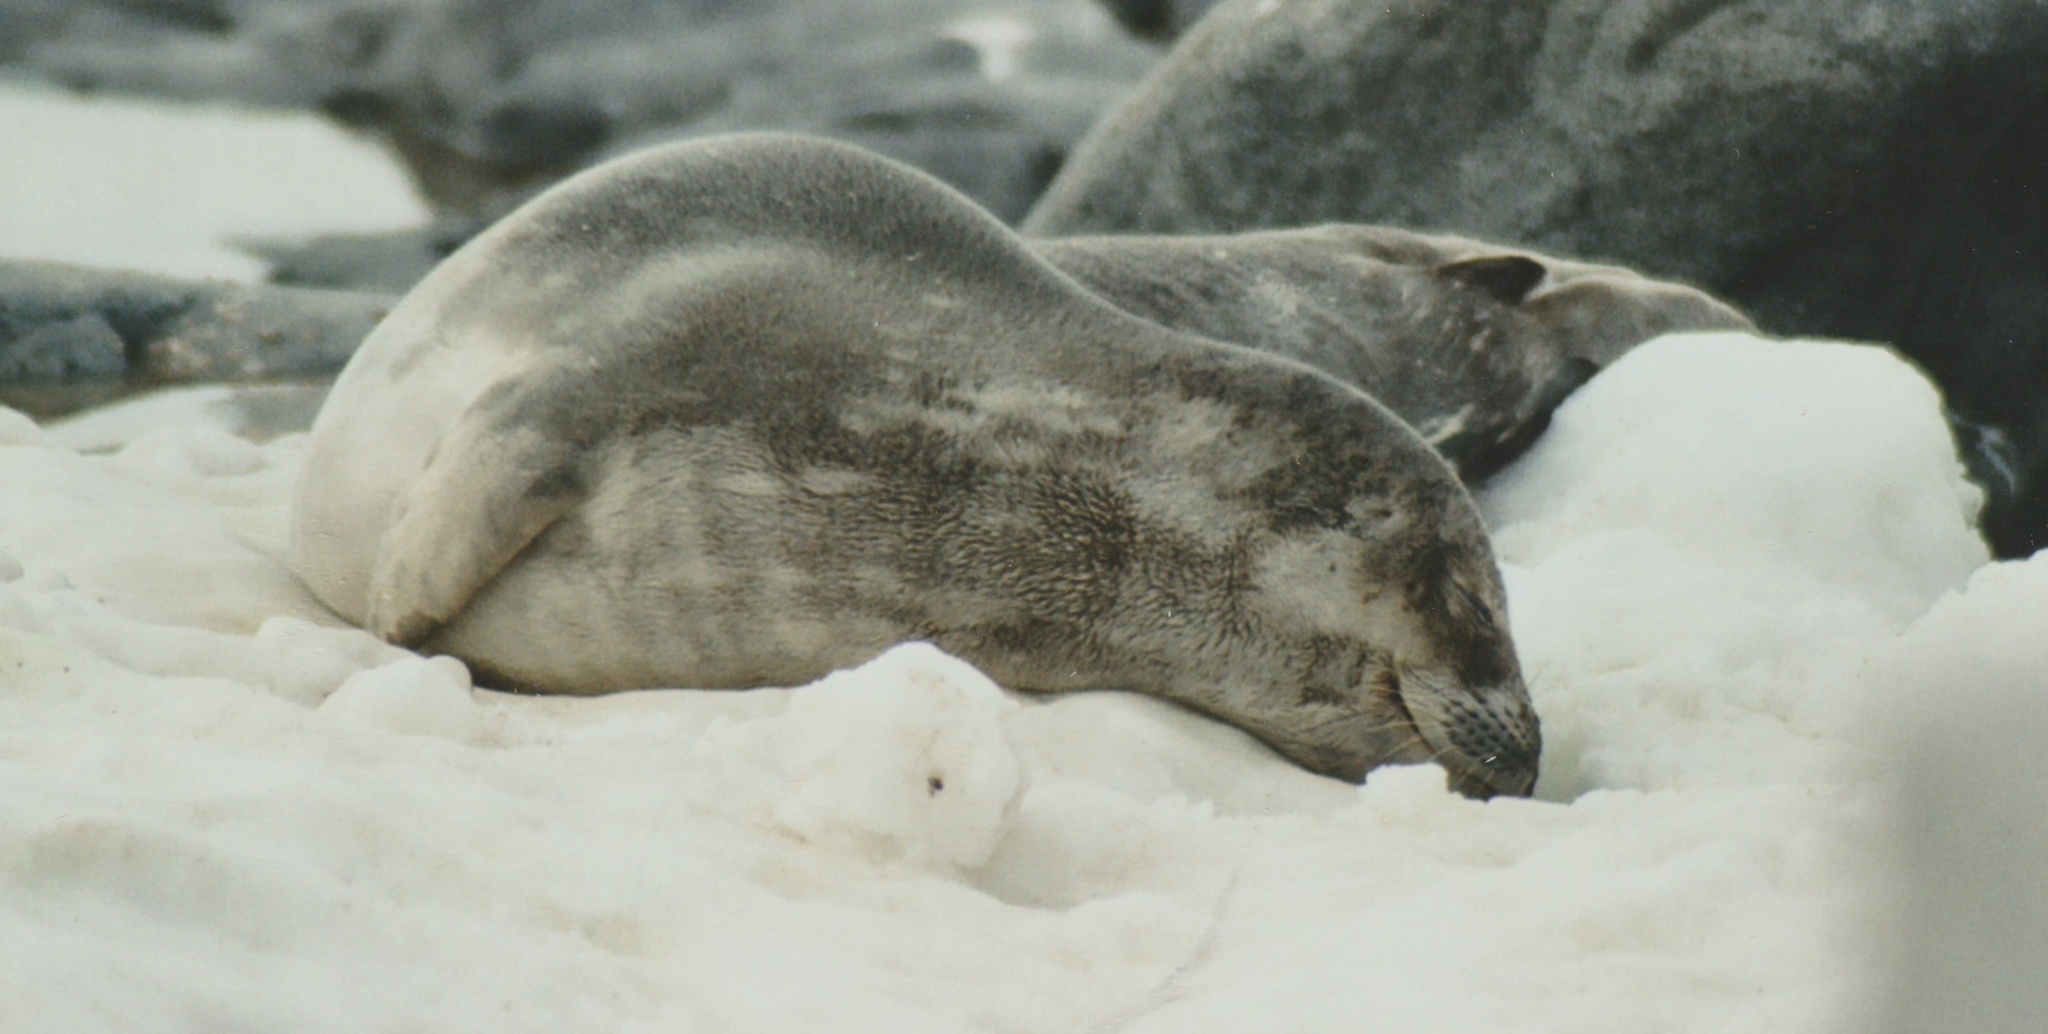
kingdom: Animalia
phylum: Chordata
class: Mammalia
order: Carnivora
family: Phocidae
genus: Leptonychotes
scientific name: Leptonychotes weddellii
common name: Weddell seal
